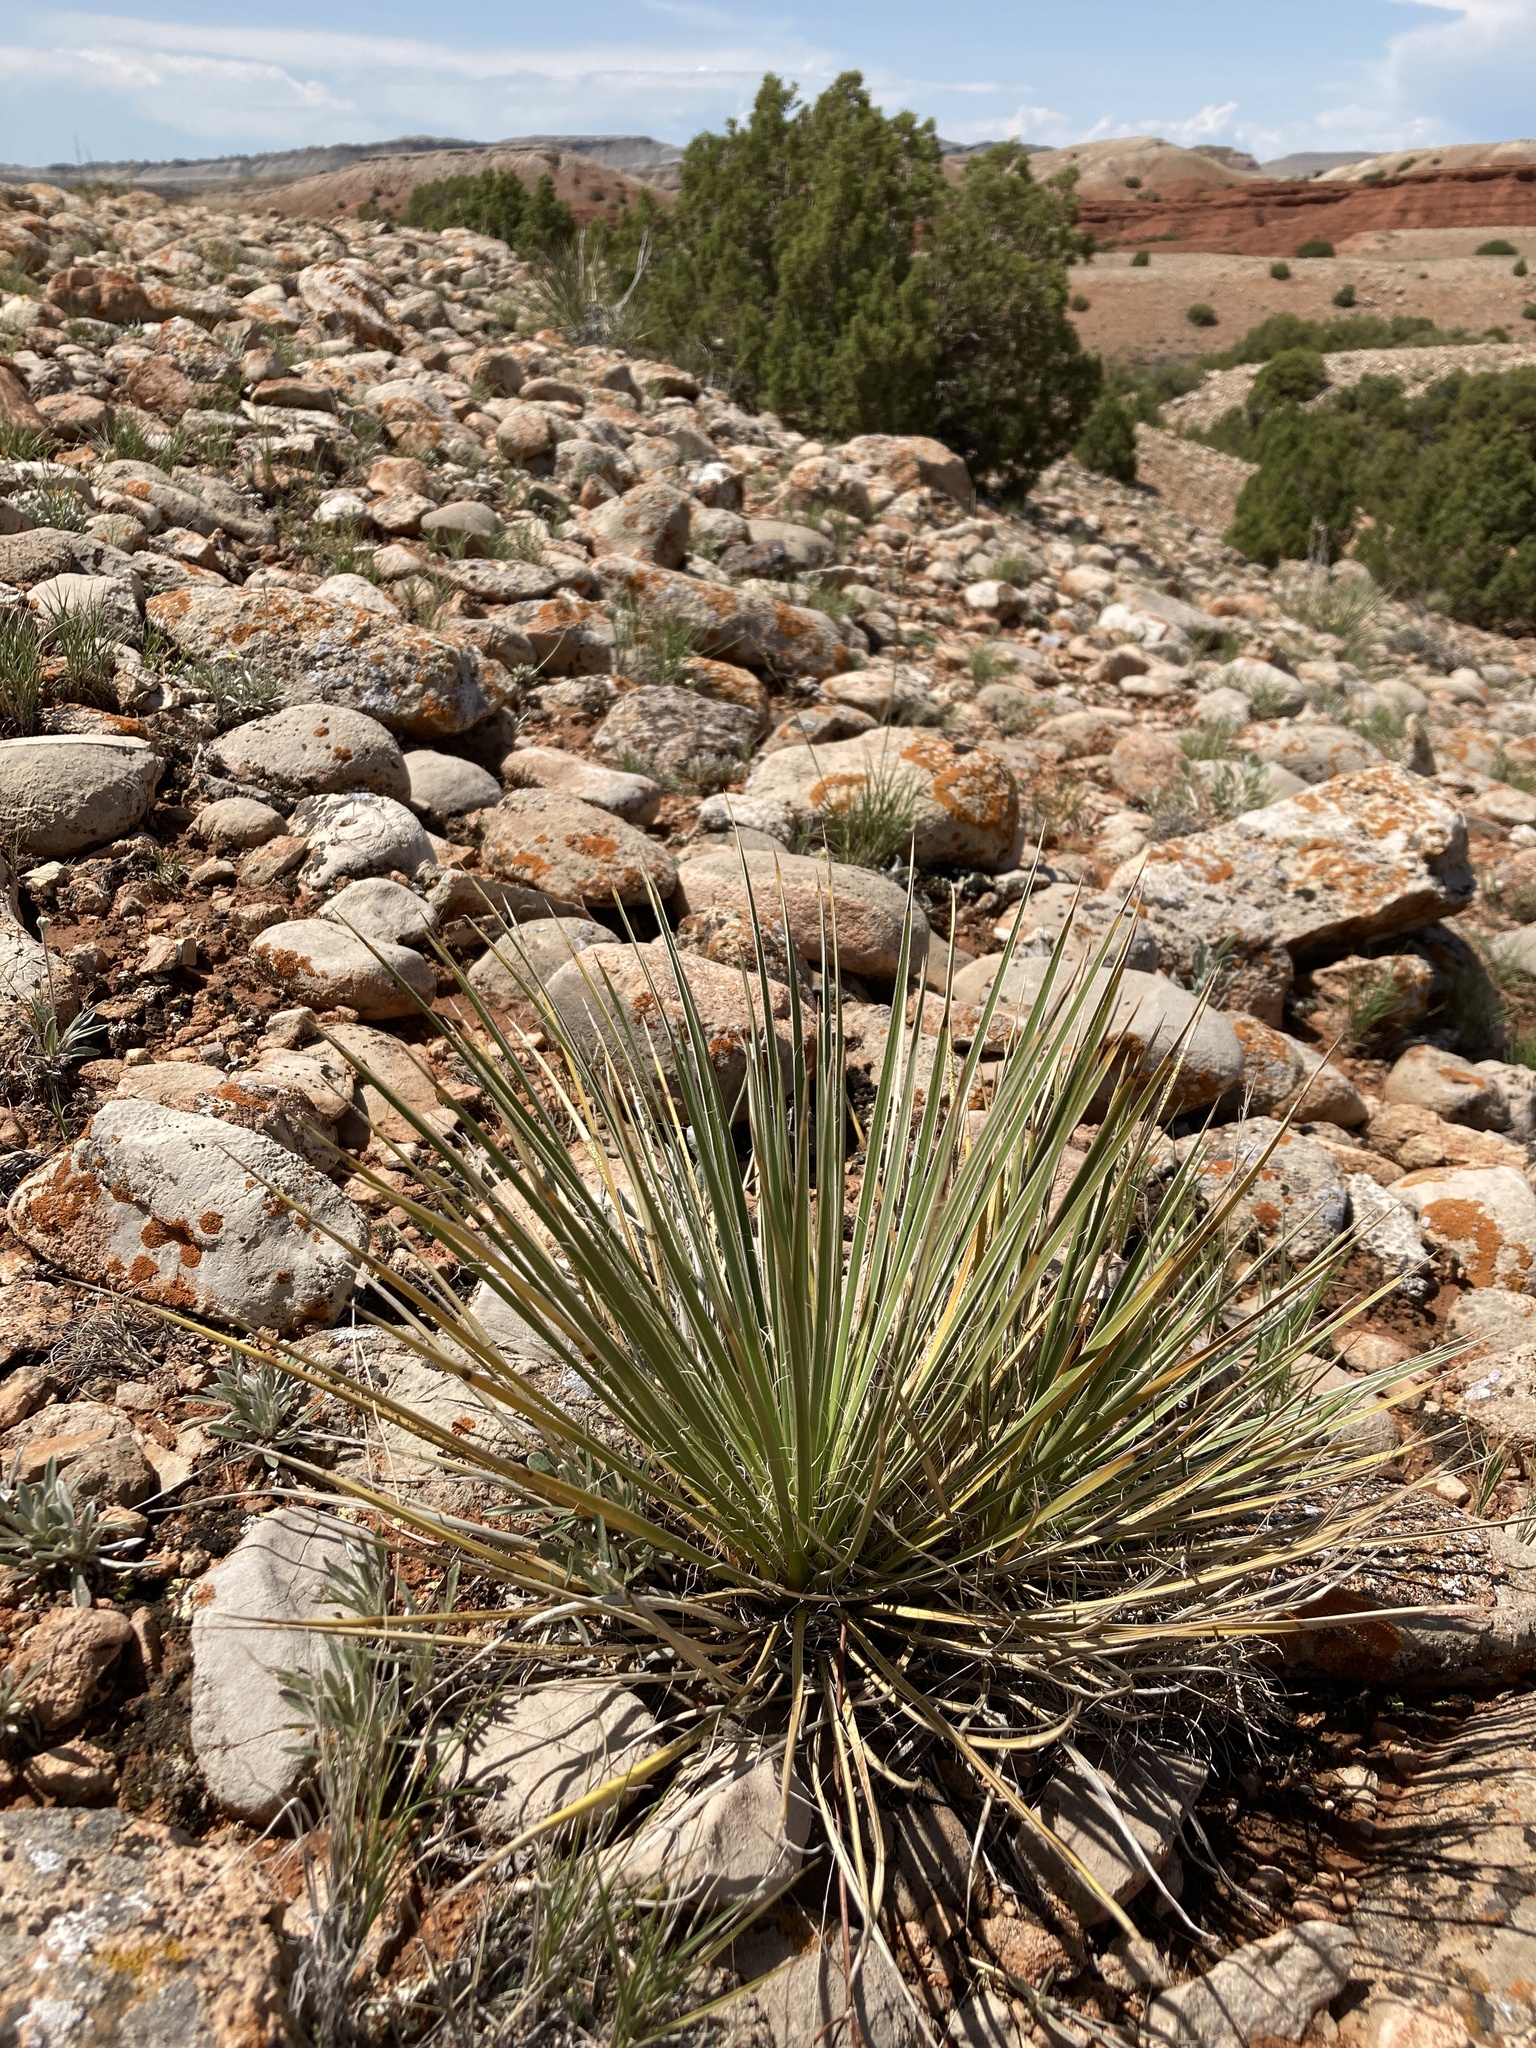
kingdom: Plantae
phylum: Tracheophyta
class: Liliopsida
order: Asparagales
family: Asparagaceae
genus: Yucca
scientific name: Yucca glauca
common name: Great plains yucca
